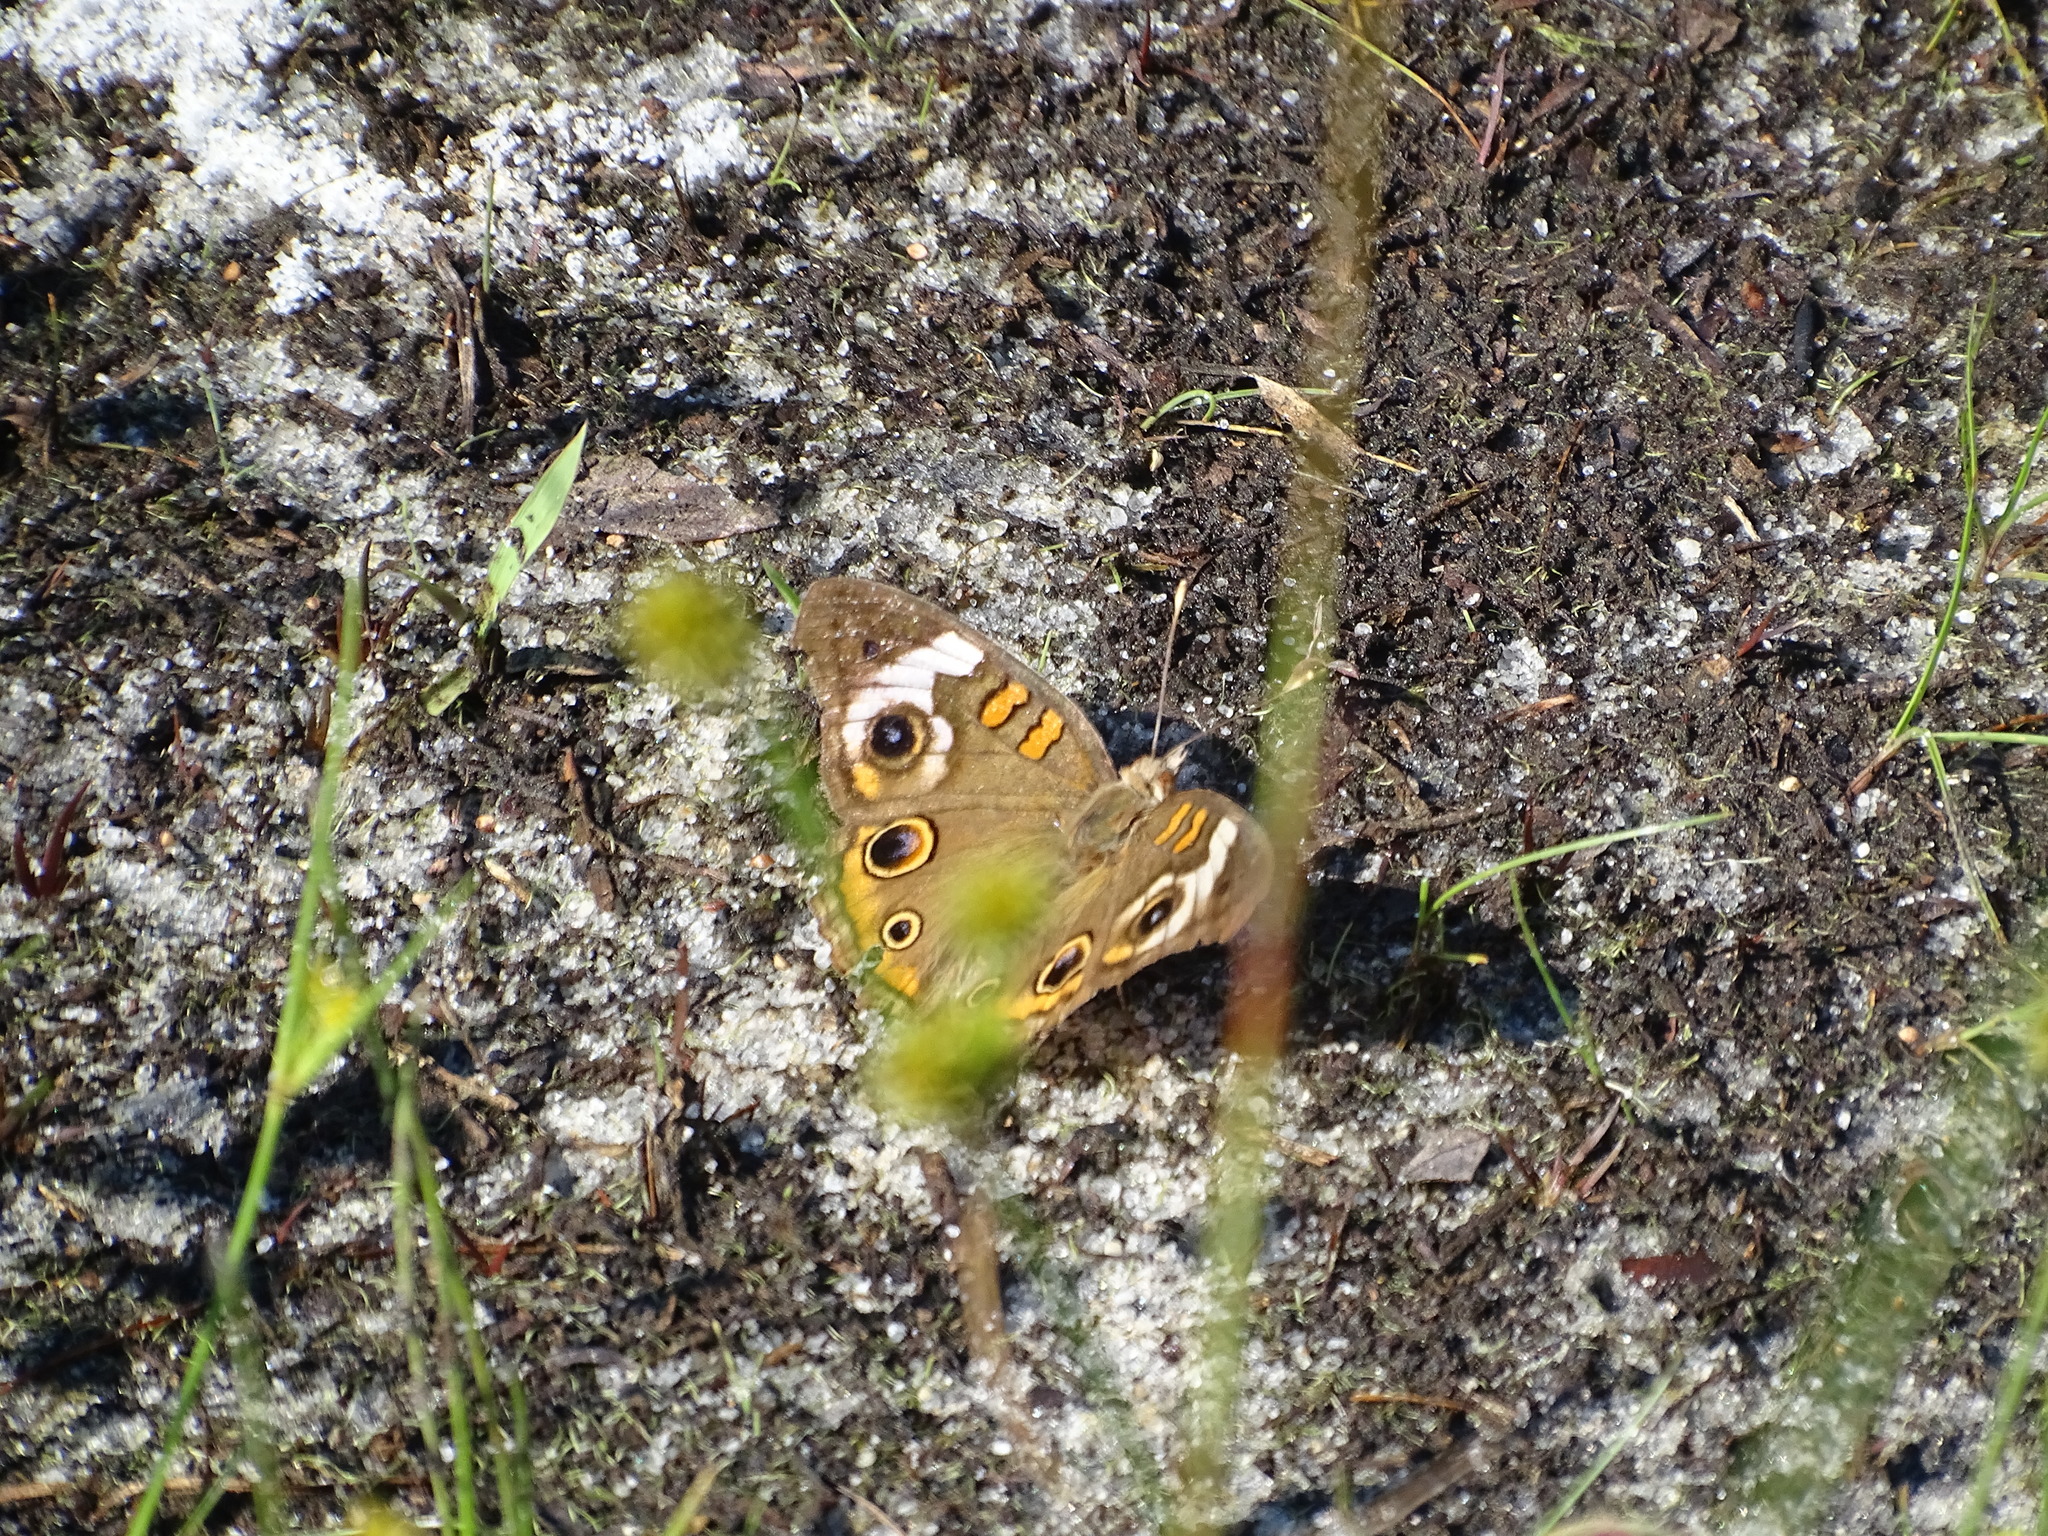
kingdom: Animalia
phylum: Arthropoda
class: Insecta
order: Lepidoptera
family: Nymphalidae
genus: Junonia
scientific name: Junonia coenia
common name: Common buckeye
